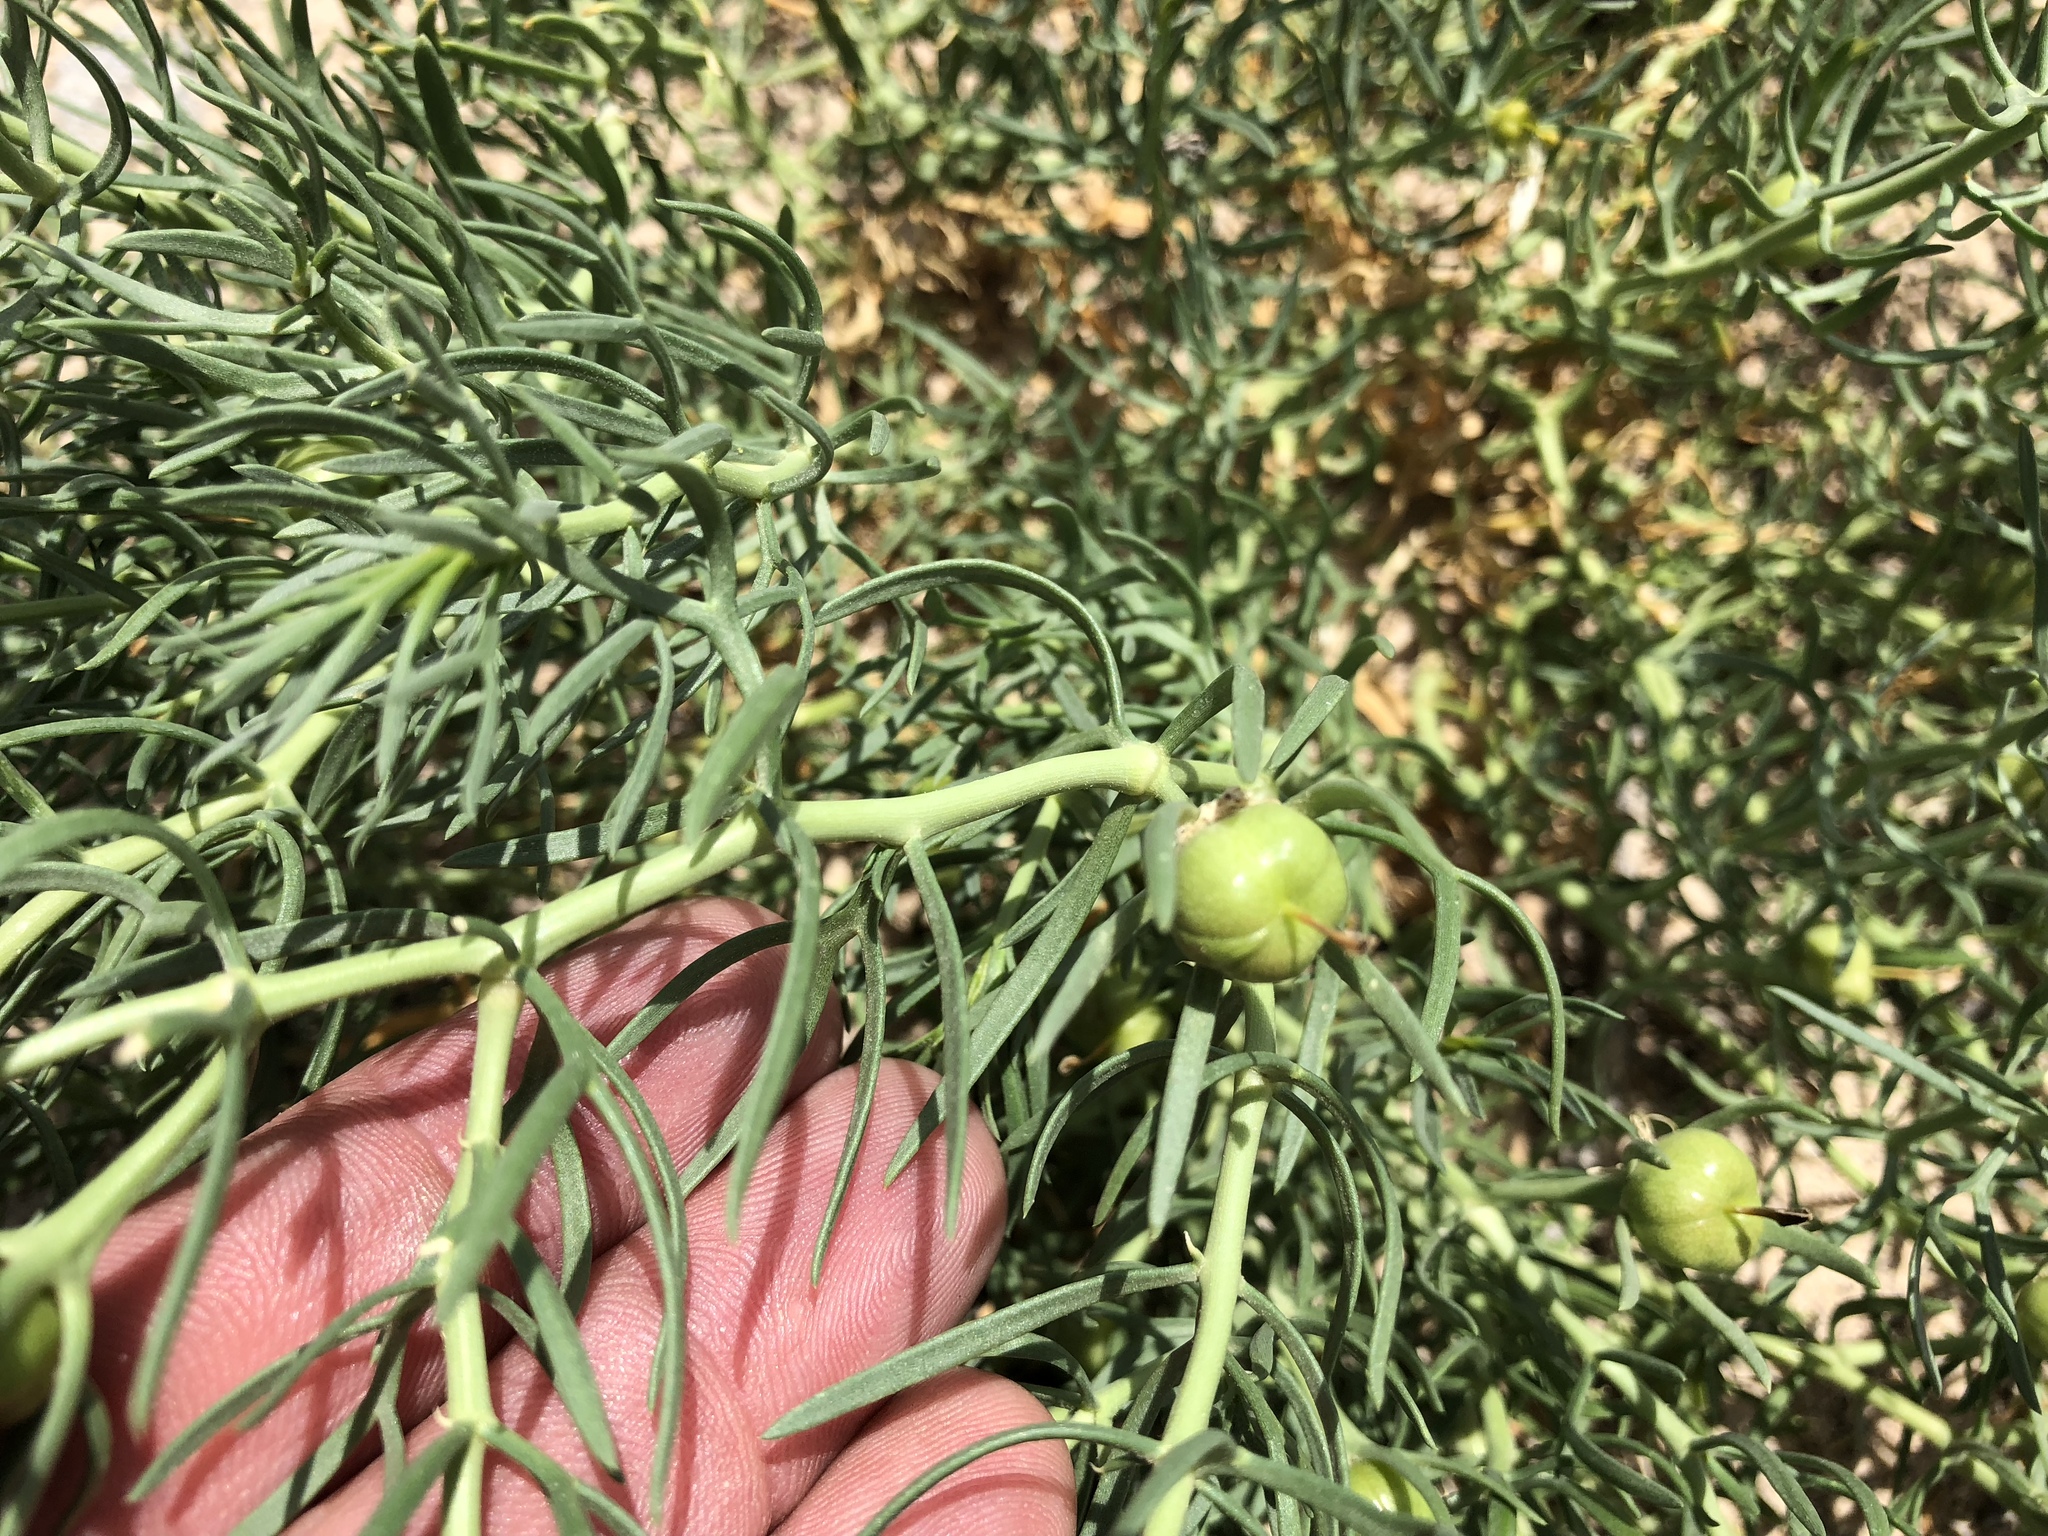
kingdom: Plantae
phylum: Tracheophyta
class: Magnoliopsida
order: Sapindales
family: Tetradiclidaceae
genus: Peganum
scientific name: Peganum harmala
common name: Harmal peganum
